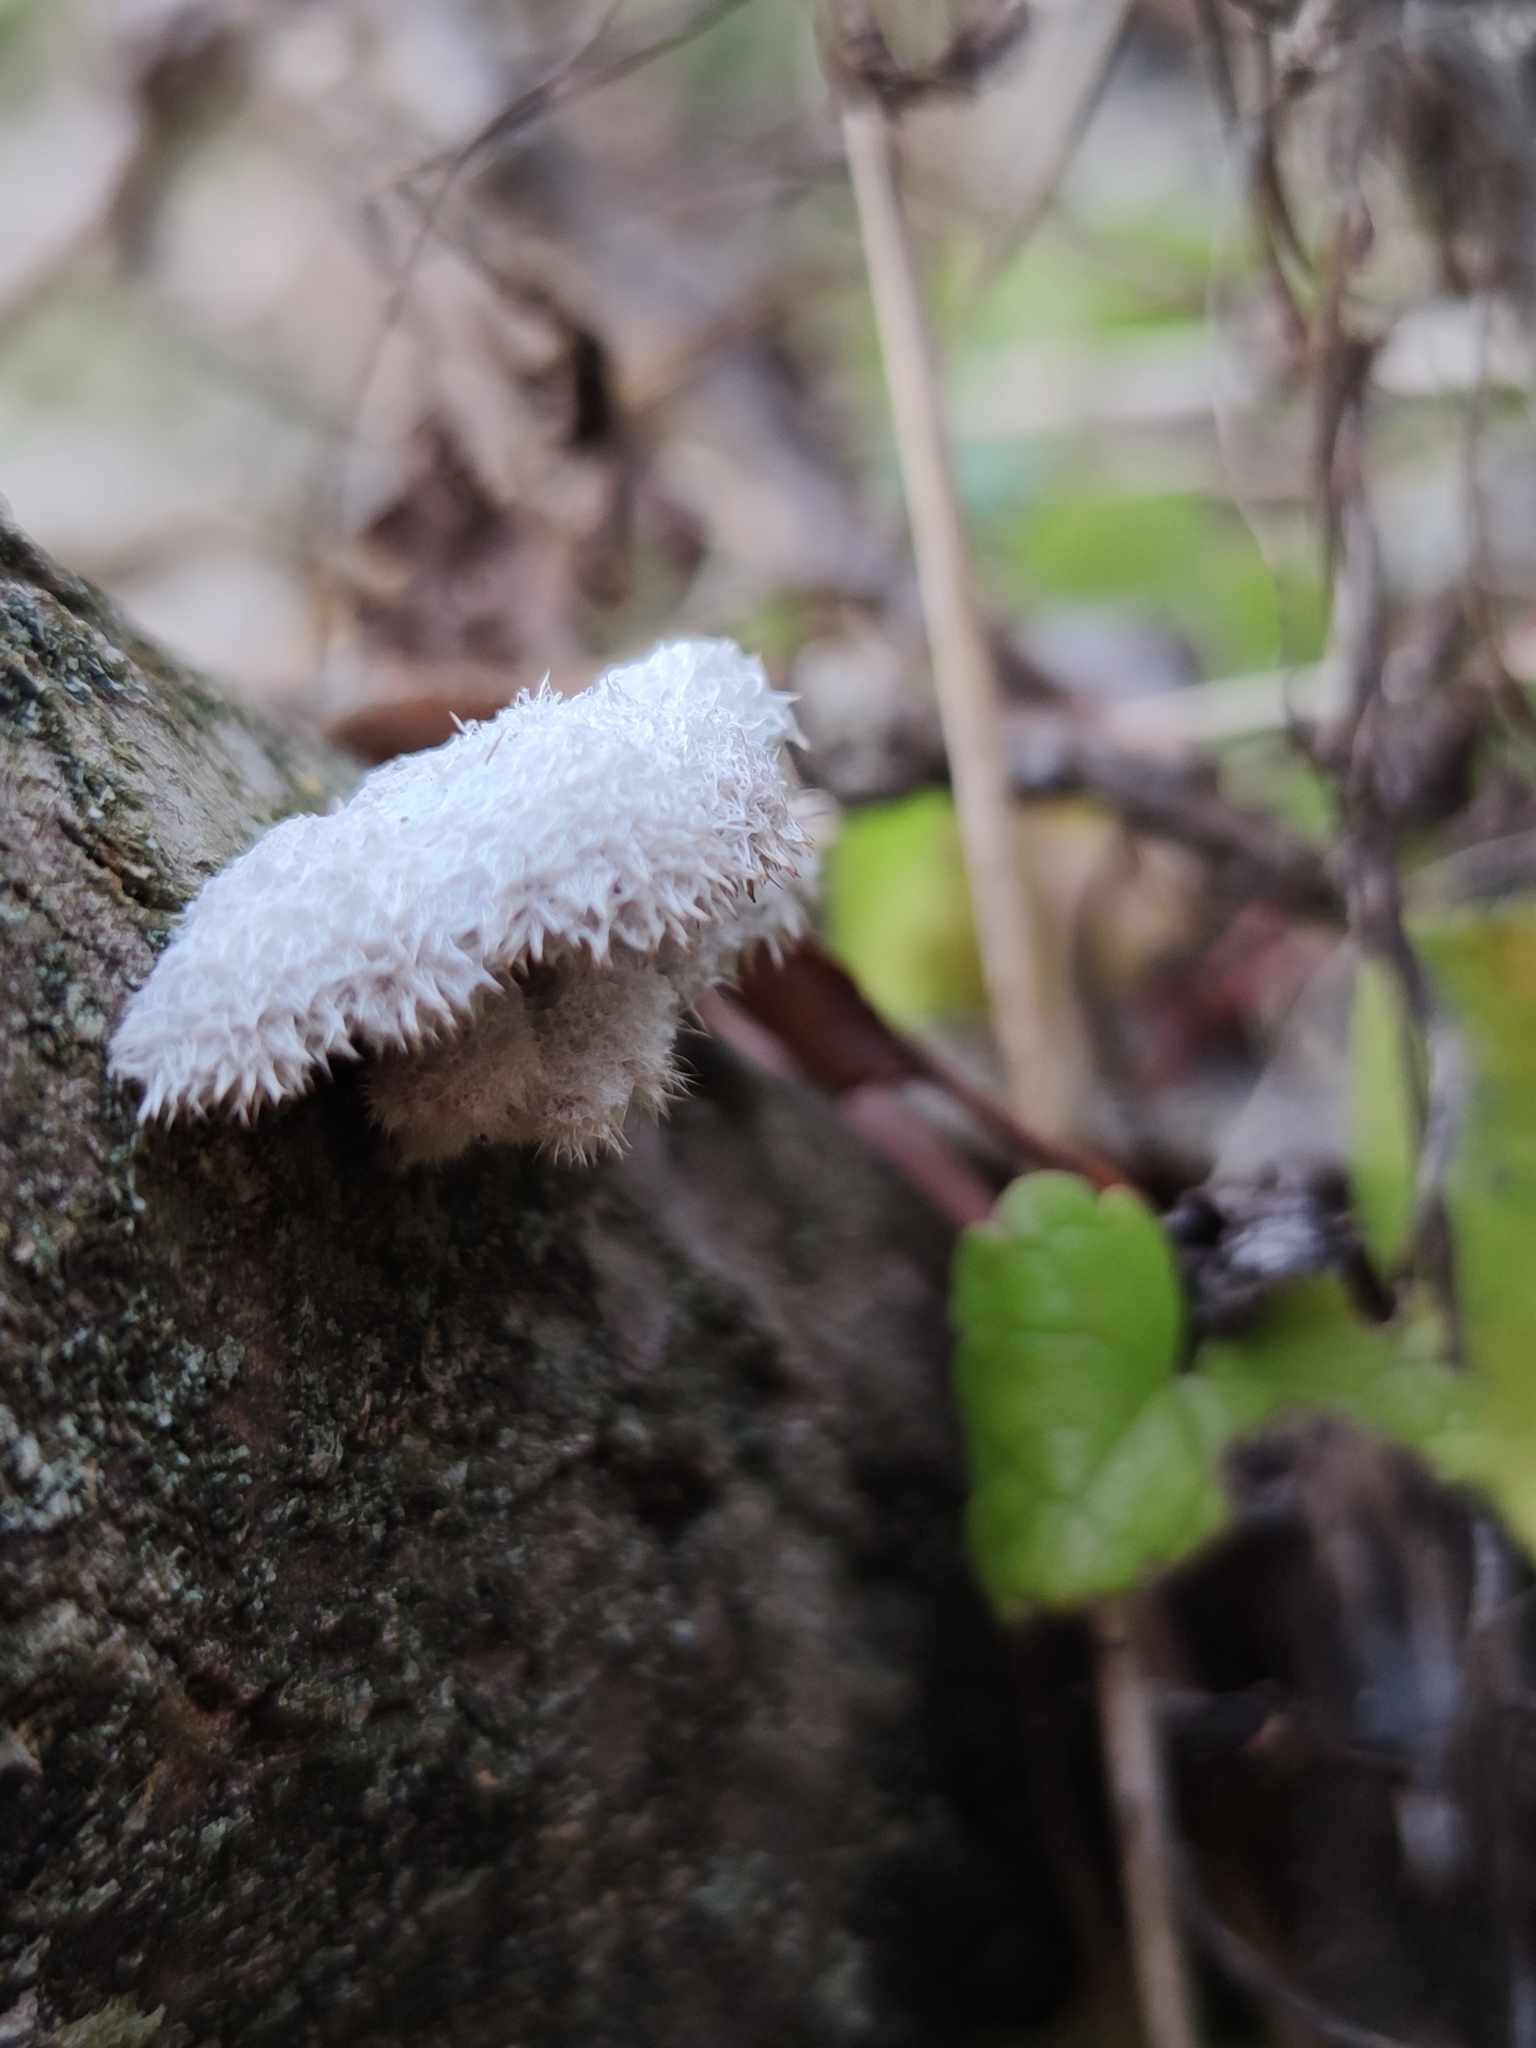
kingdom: Fungi
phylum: Basidiomycota
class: Agaricomycetes
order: Agaricales
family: Schizophyllaceae
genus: Schizophyllum
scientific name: Schizophyllum commune
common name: Common porecrust
